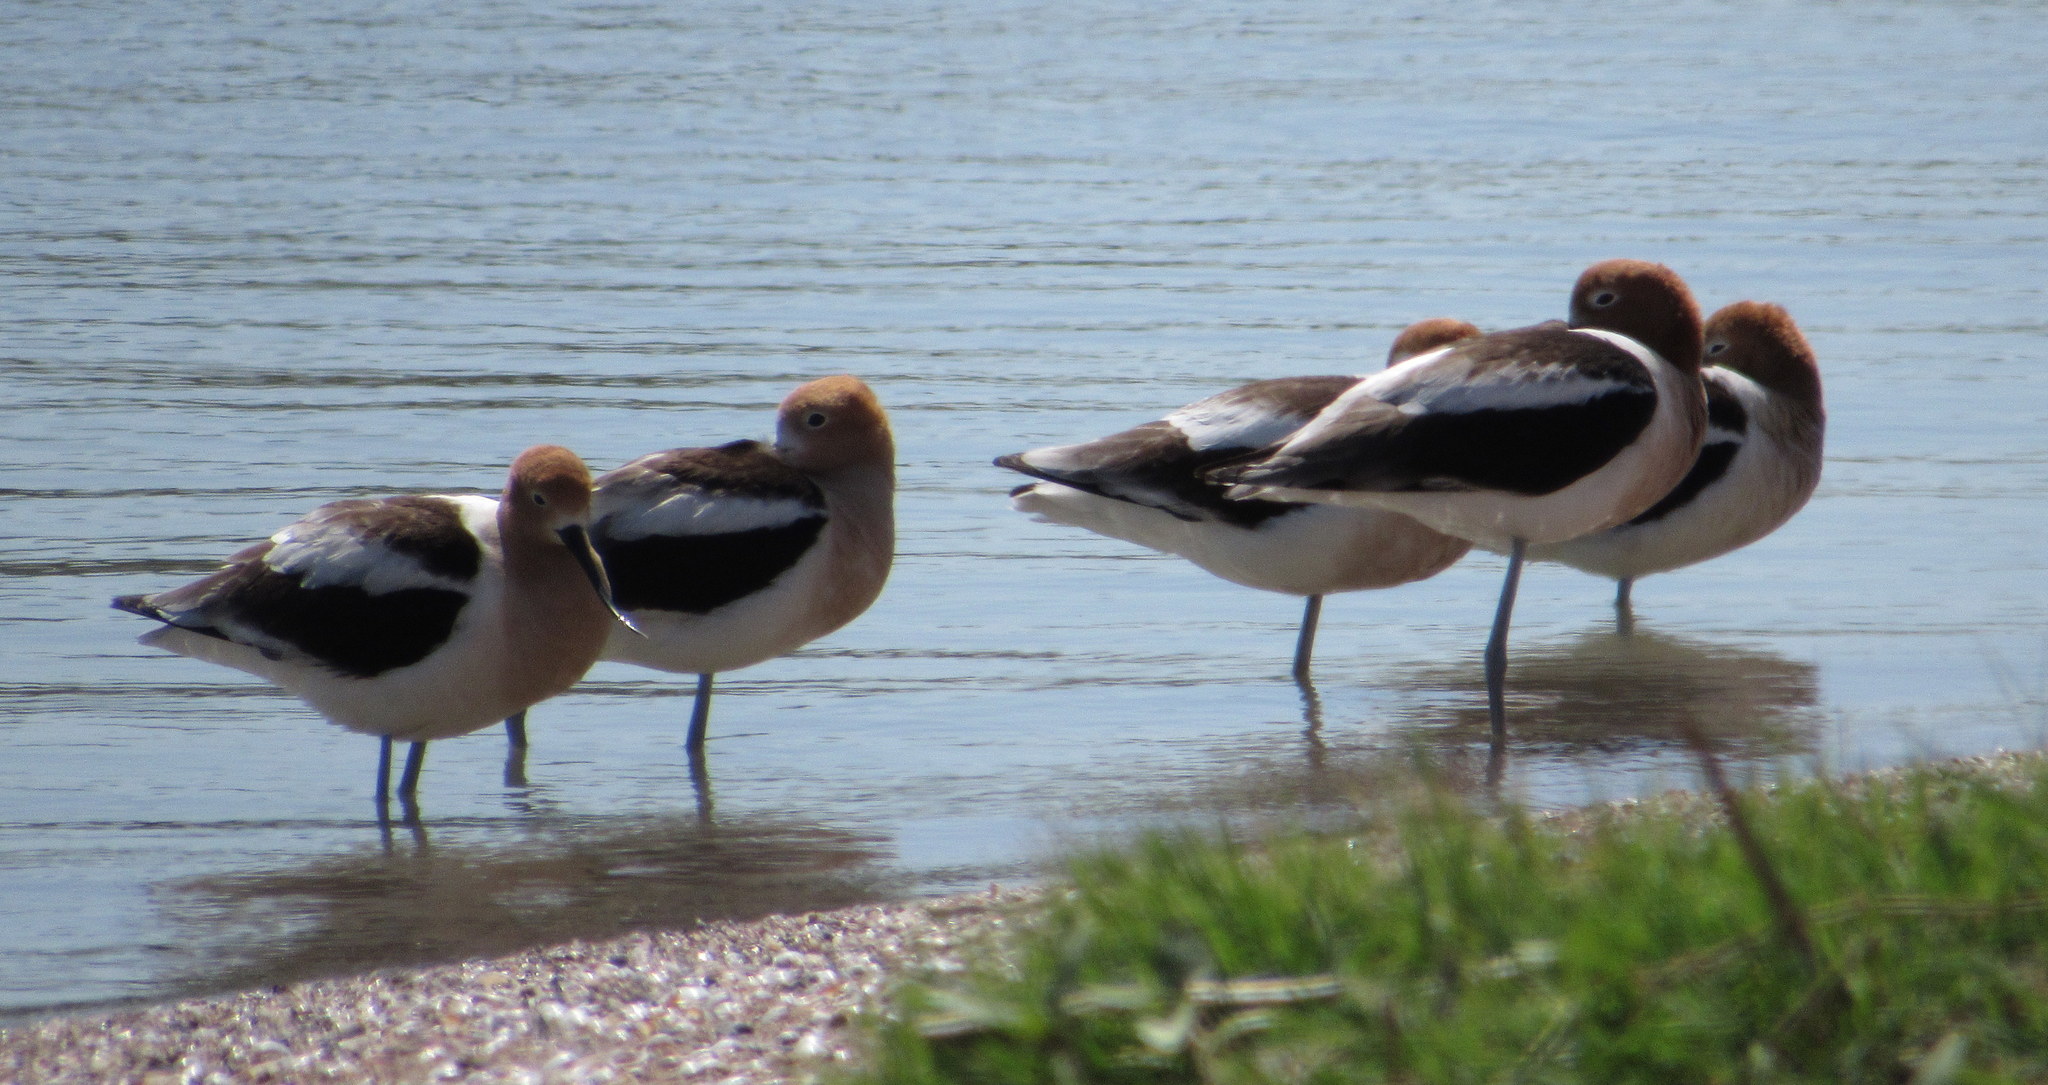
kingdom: Animalia
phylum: Chordata
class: Aves
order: Charadriiformes
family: Recurvirostridae
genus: Recurvirostra
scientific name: Recurvirostra americana
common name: American avocet
